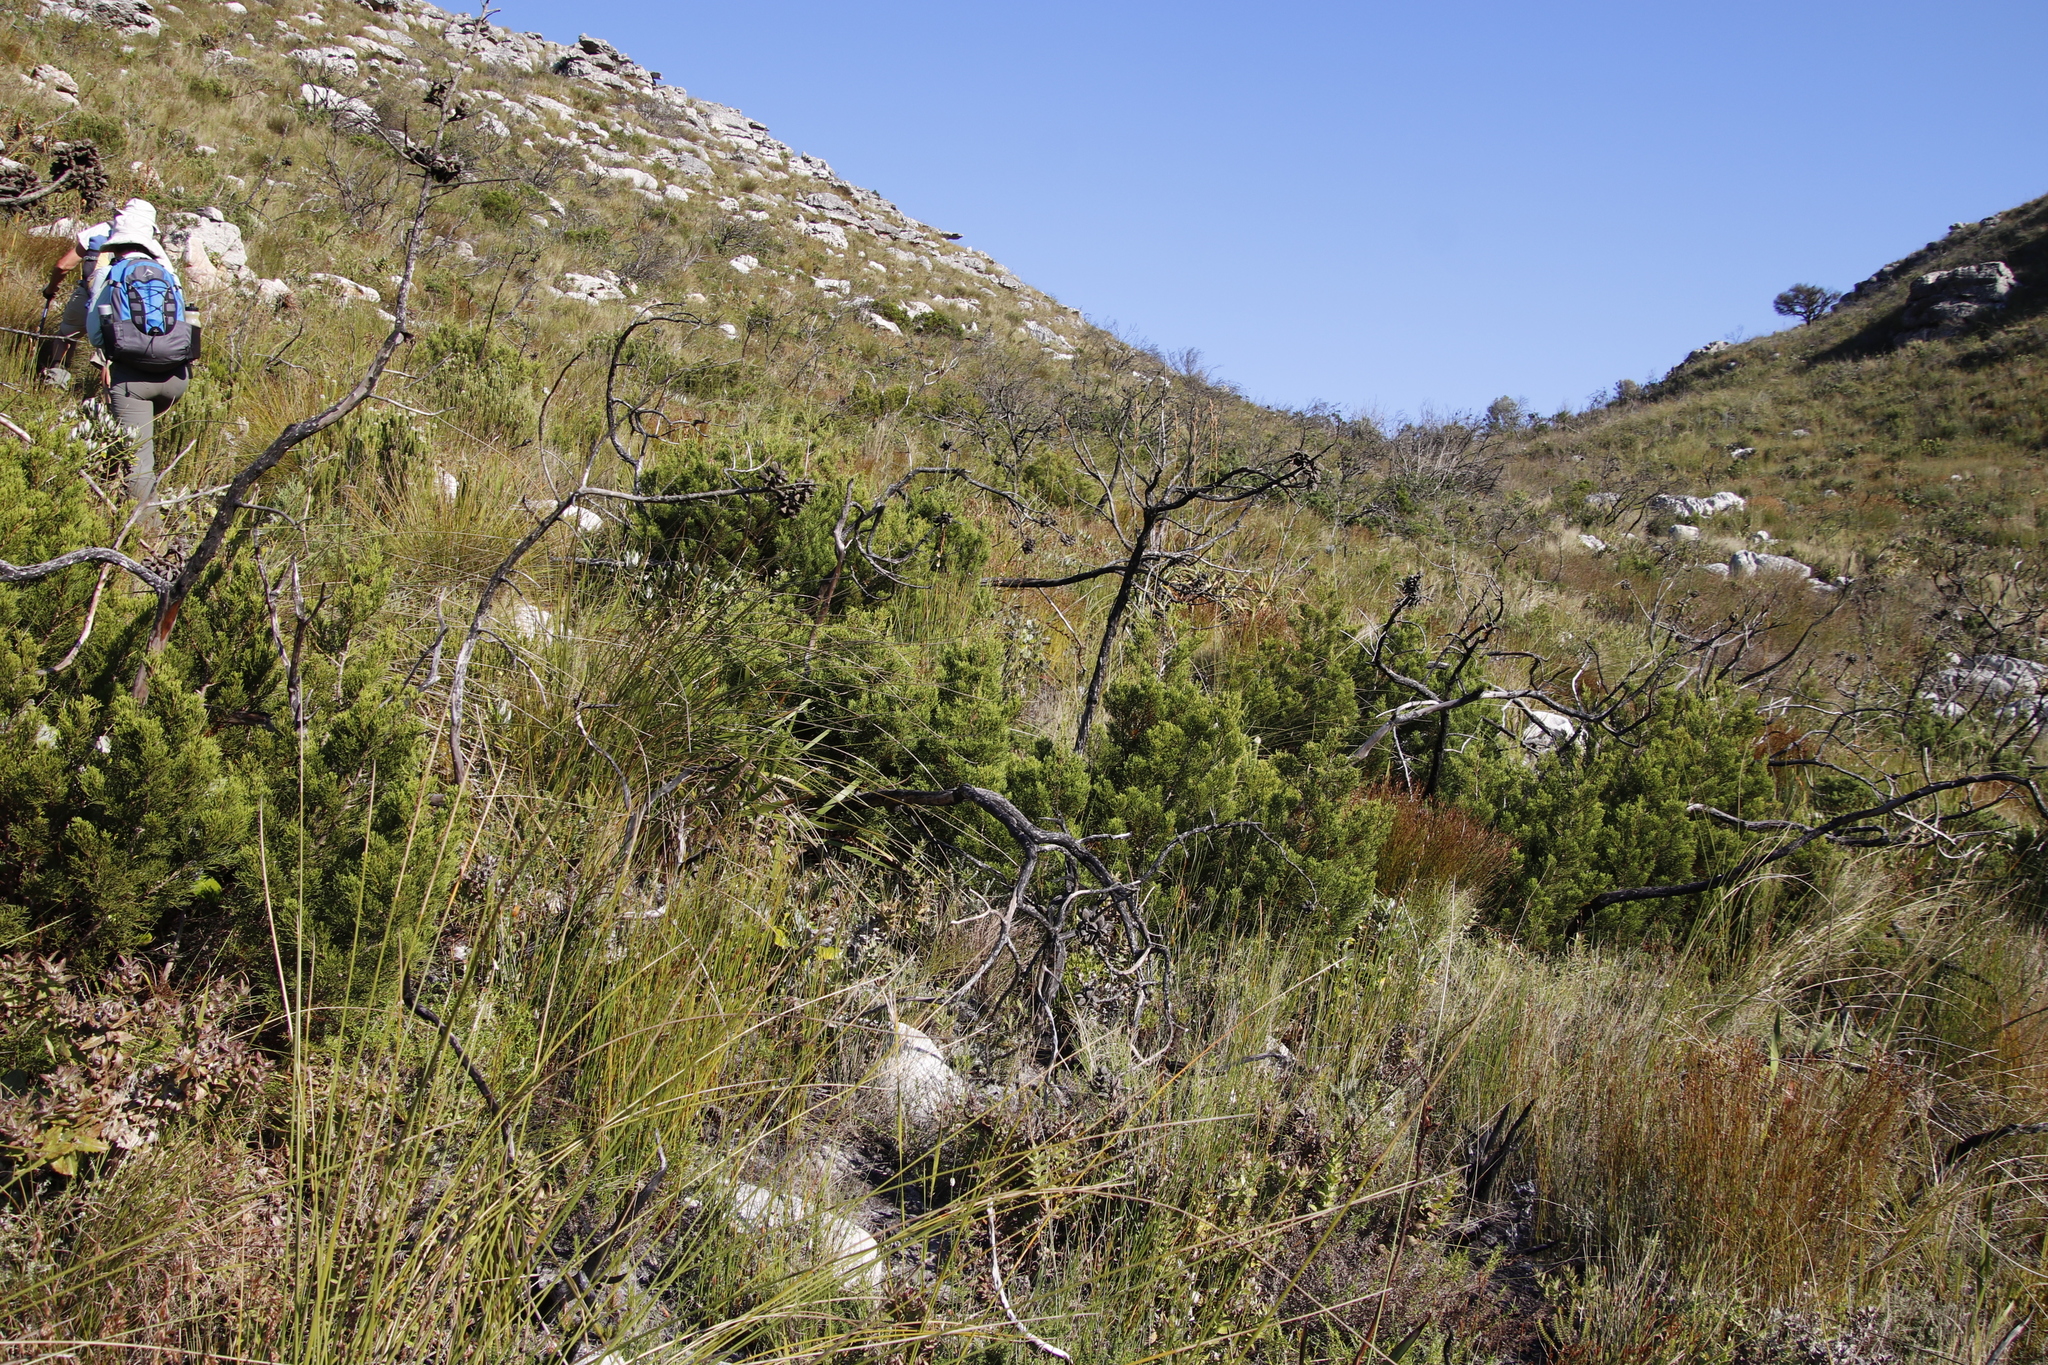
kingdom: Plantae
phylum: Tracheophyta
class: Pinopsida
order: Pinales
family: Cupressaceae
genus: Widdringtonia
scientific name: Widdringtonia nodiflora
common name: Cape cypress
